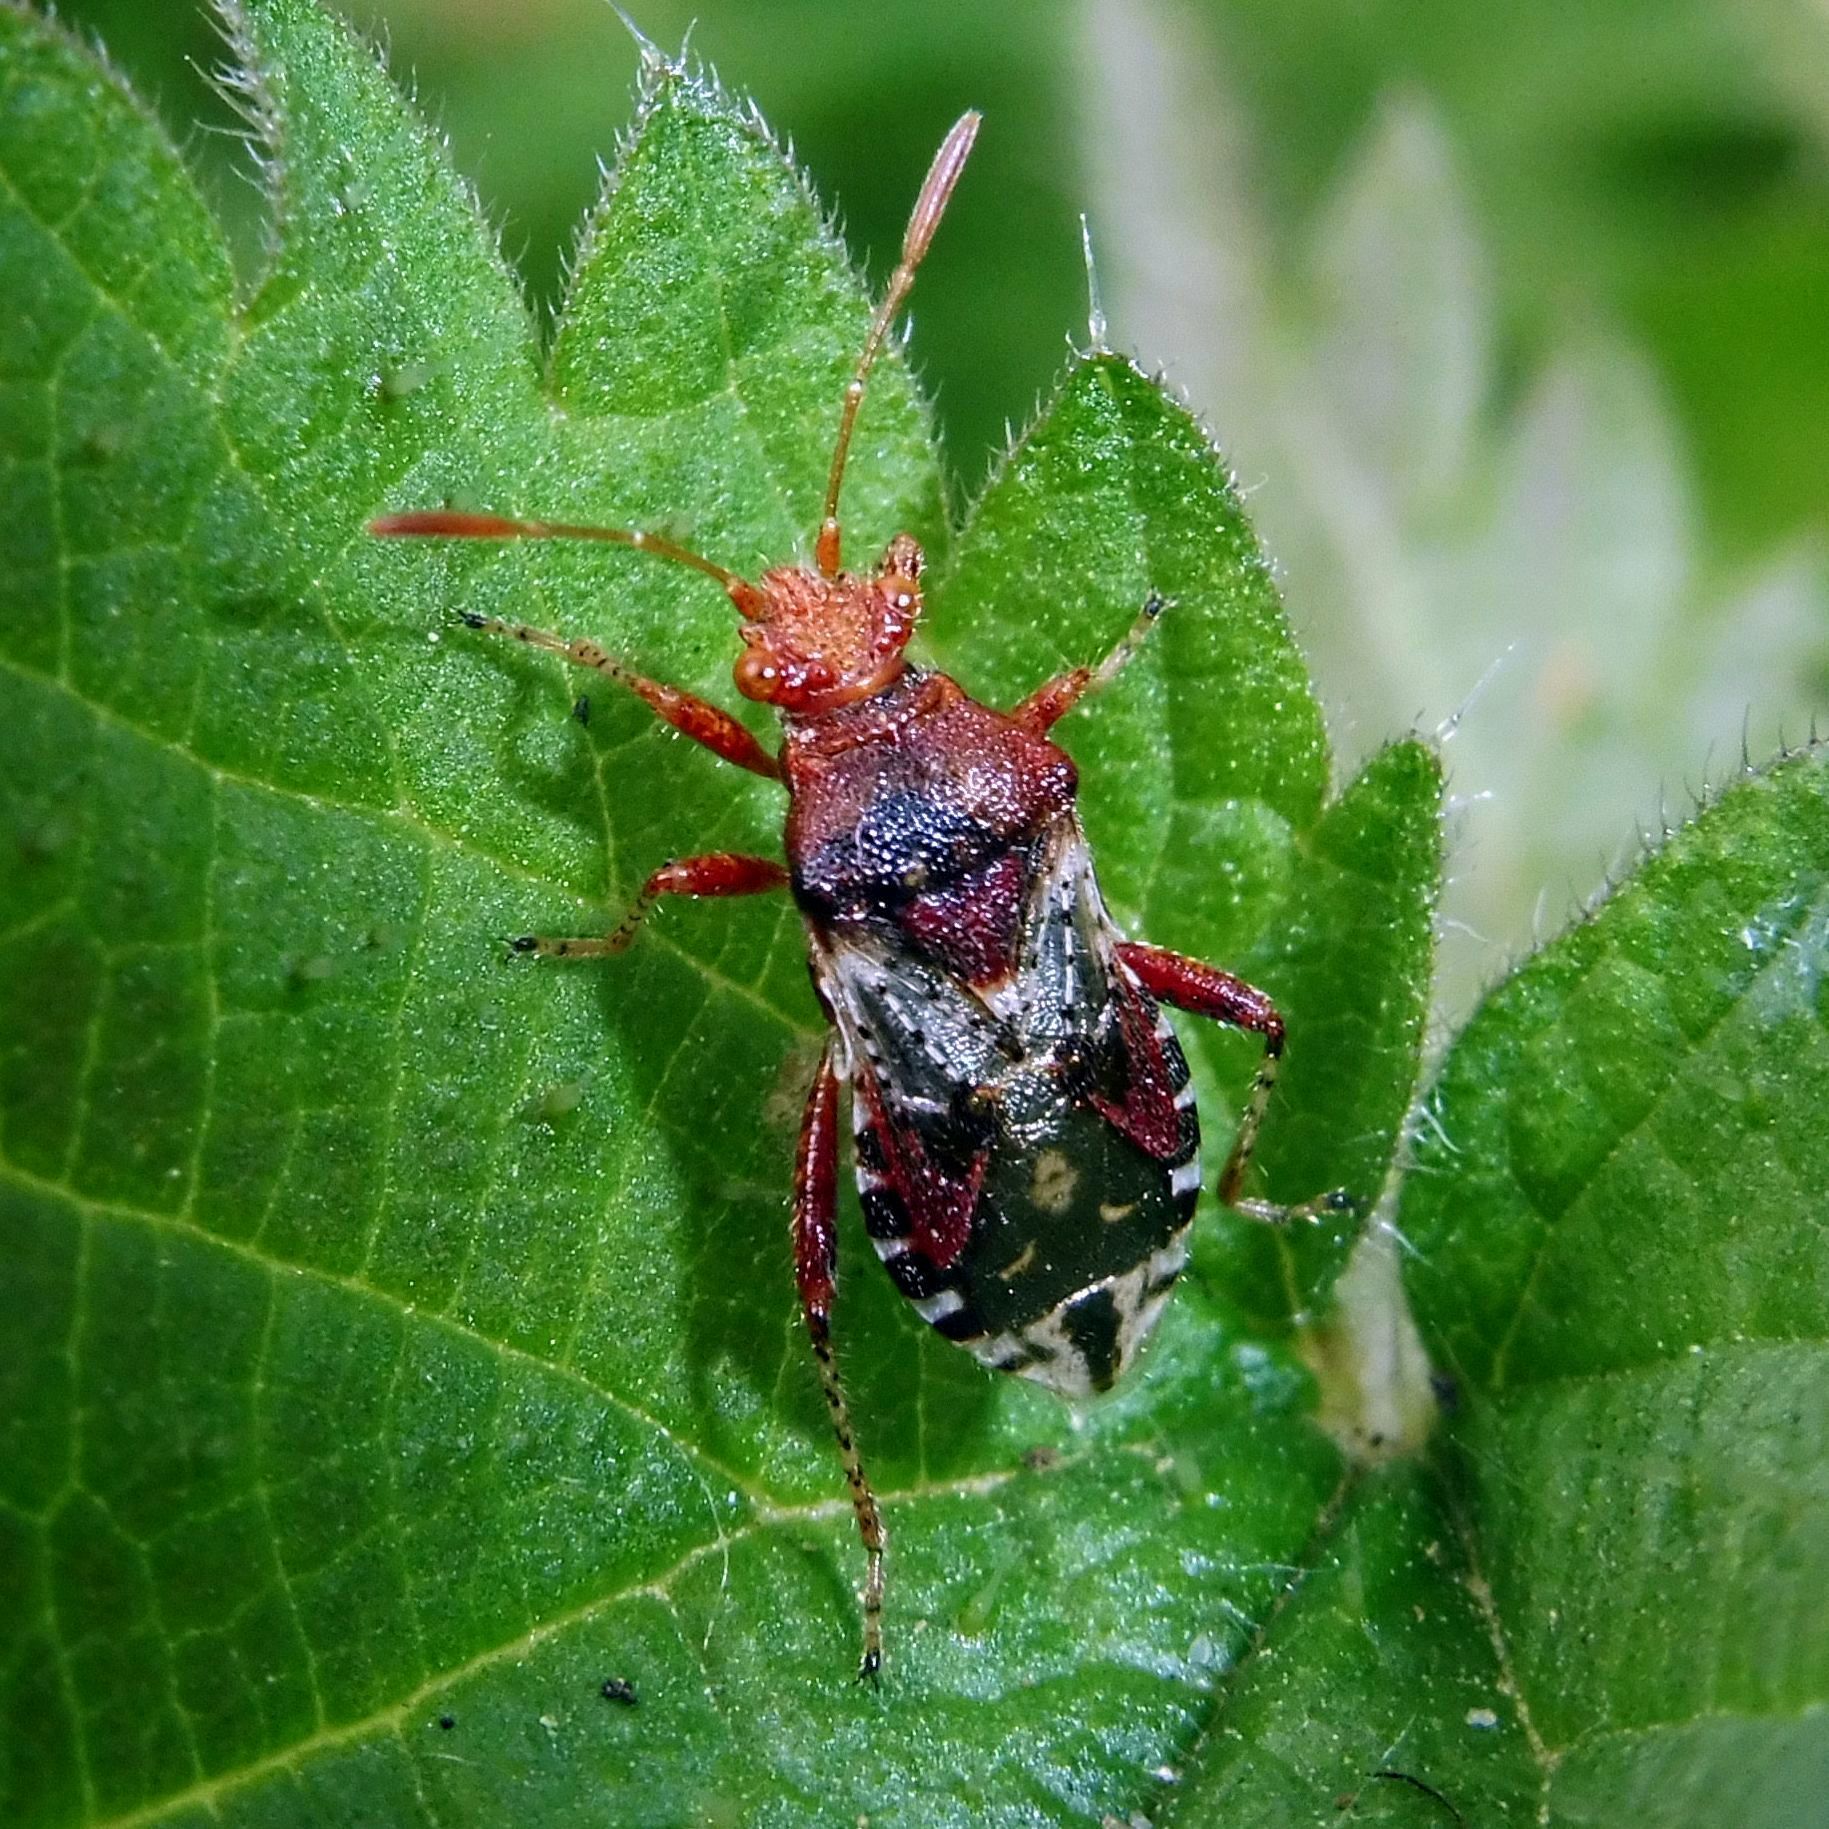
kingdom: Animalia
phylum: Arthropoda
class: Insecta
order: Hemiptera
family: Rhopalidae
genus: Rhopalus
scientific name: Rhopalus subrufus
